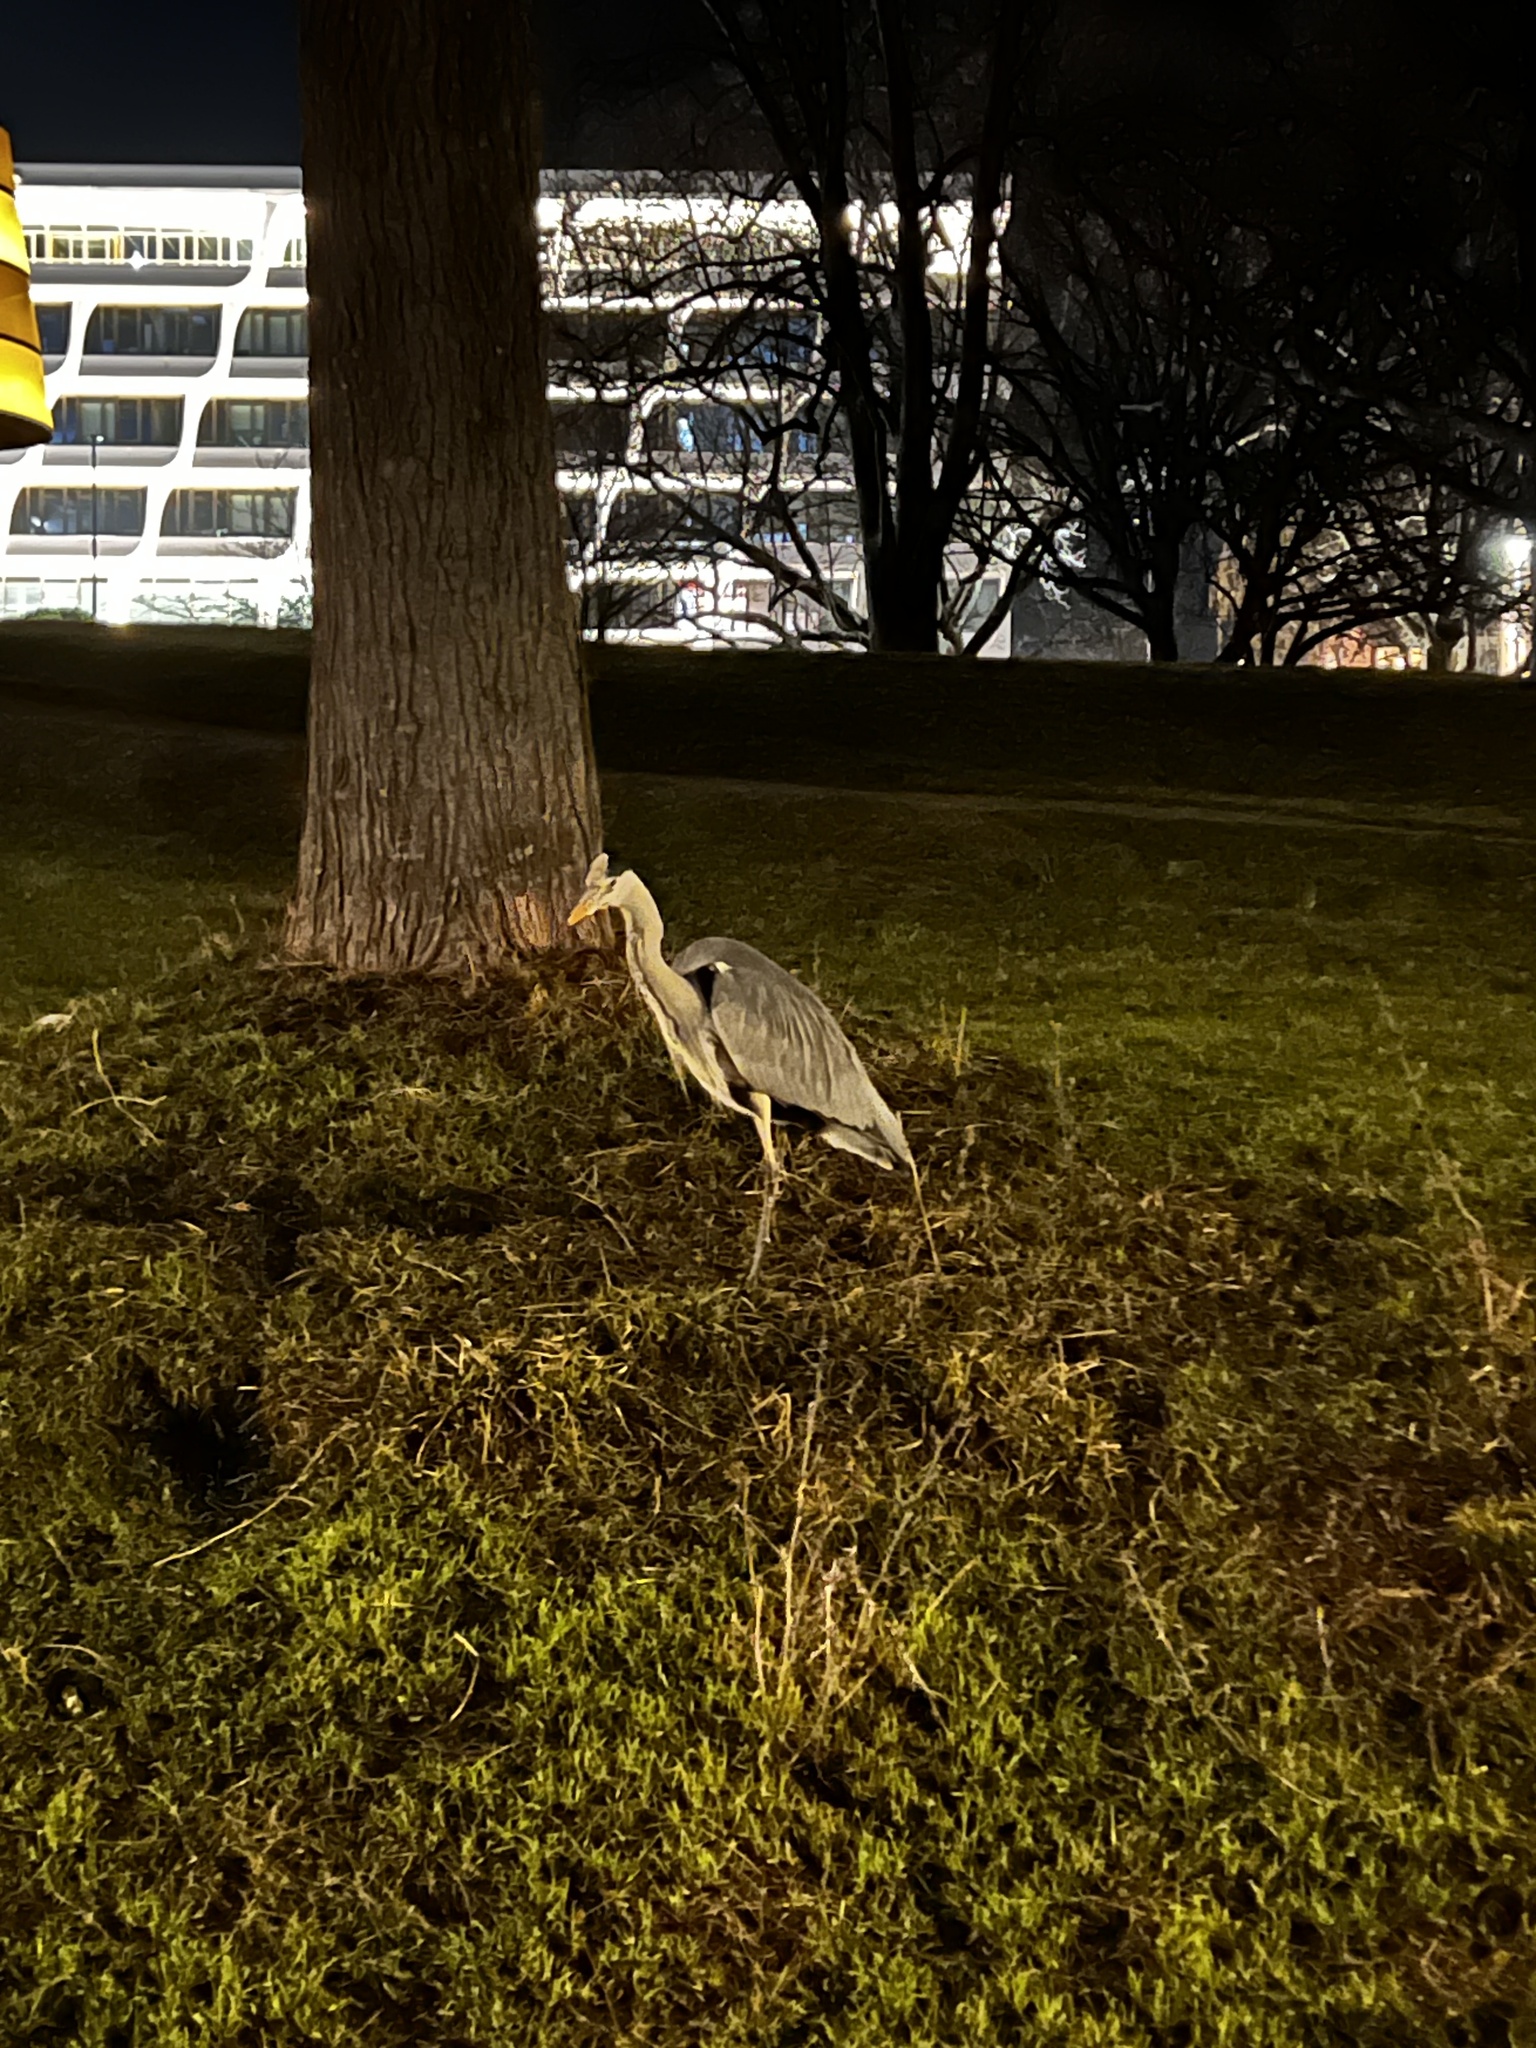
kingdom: Animalia
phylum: Chordata
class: Aves
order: Pelecaniformes
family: Ardeidae
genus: Ardea
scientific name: Ardea cinerea
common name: Grey heron
